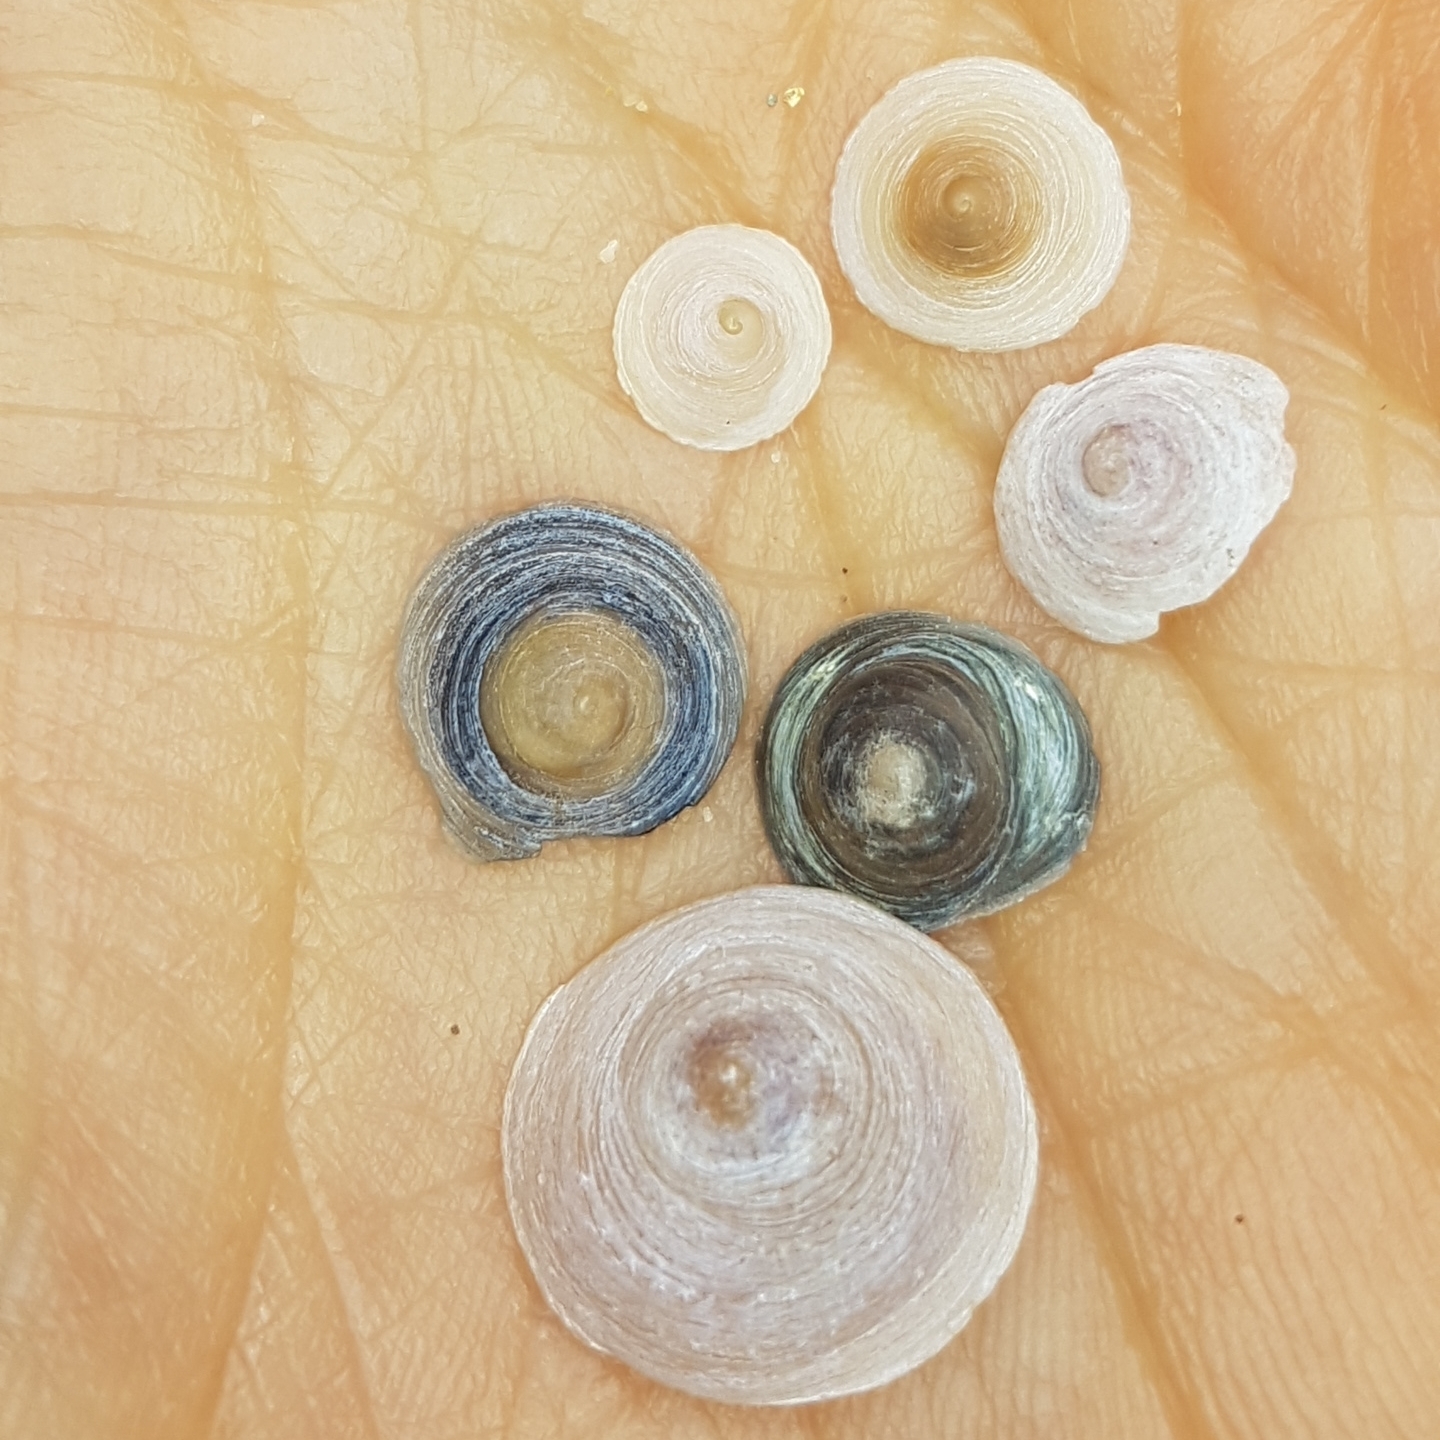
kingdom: Animalia
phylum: Mollusca
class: Gastropoda
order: Littorinimorpha
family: Calyptraeidae
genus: Calyptraea
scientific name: Calyptraea chinensis
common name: Chinaman's hat
